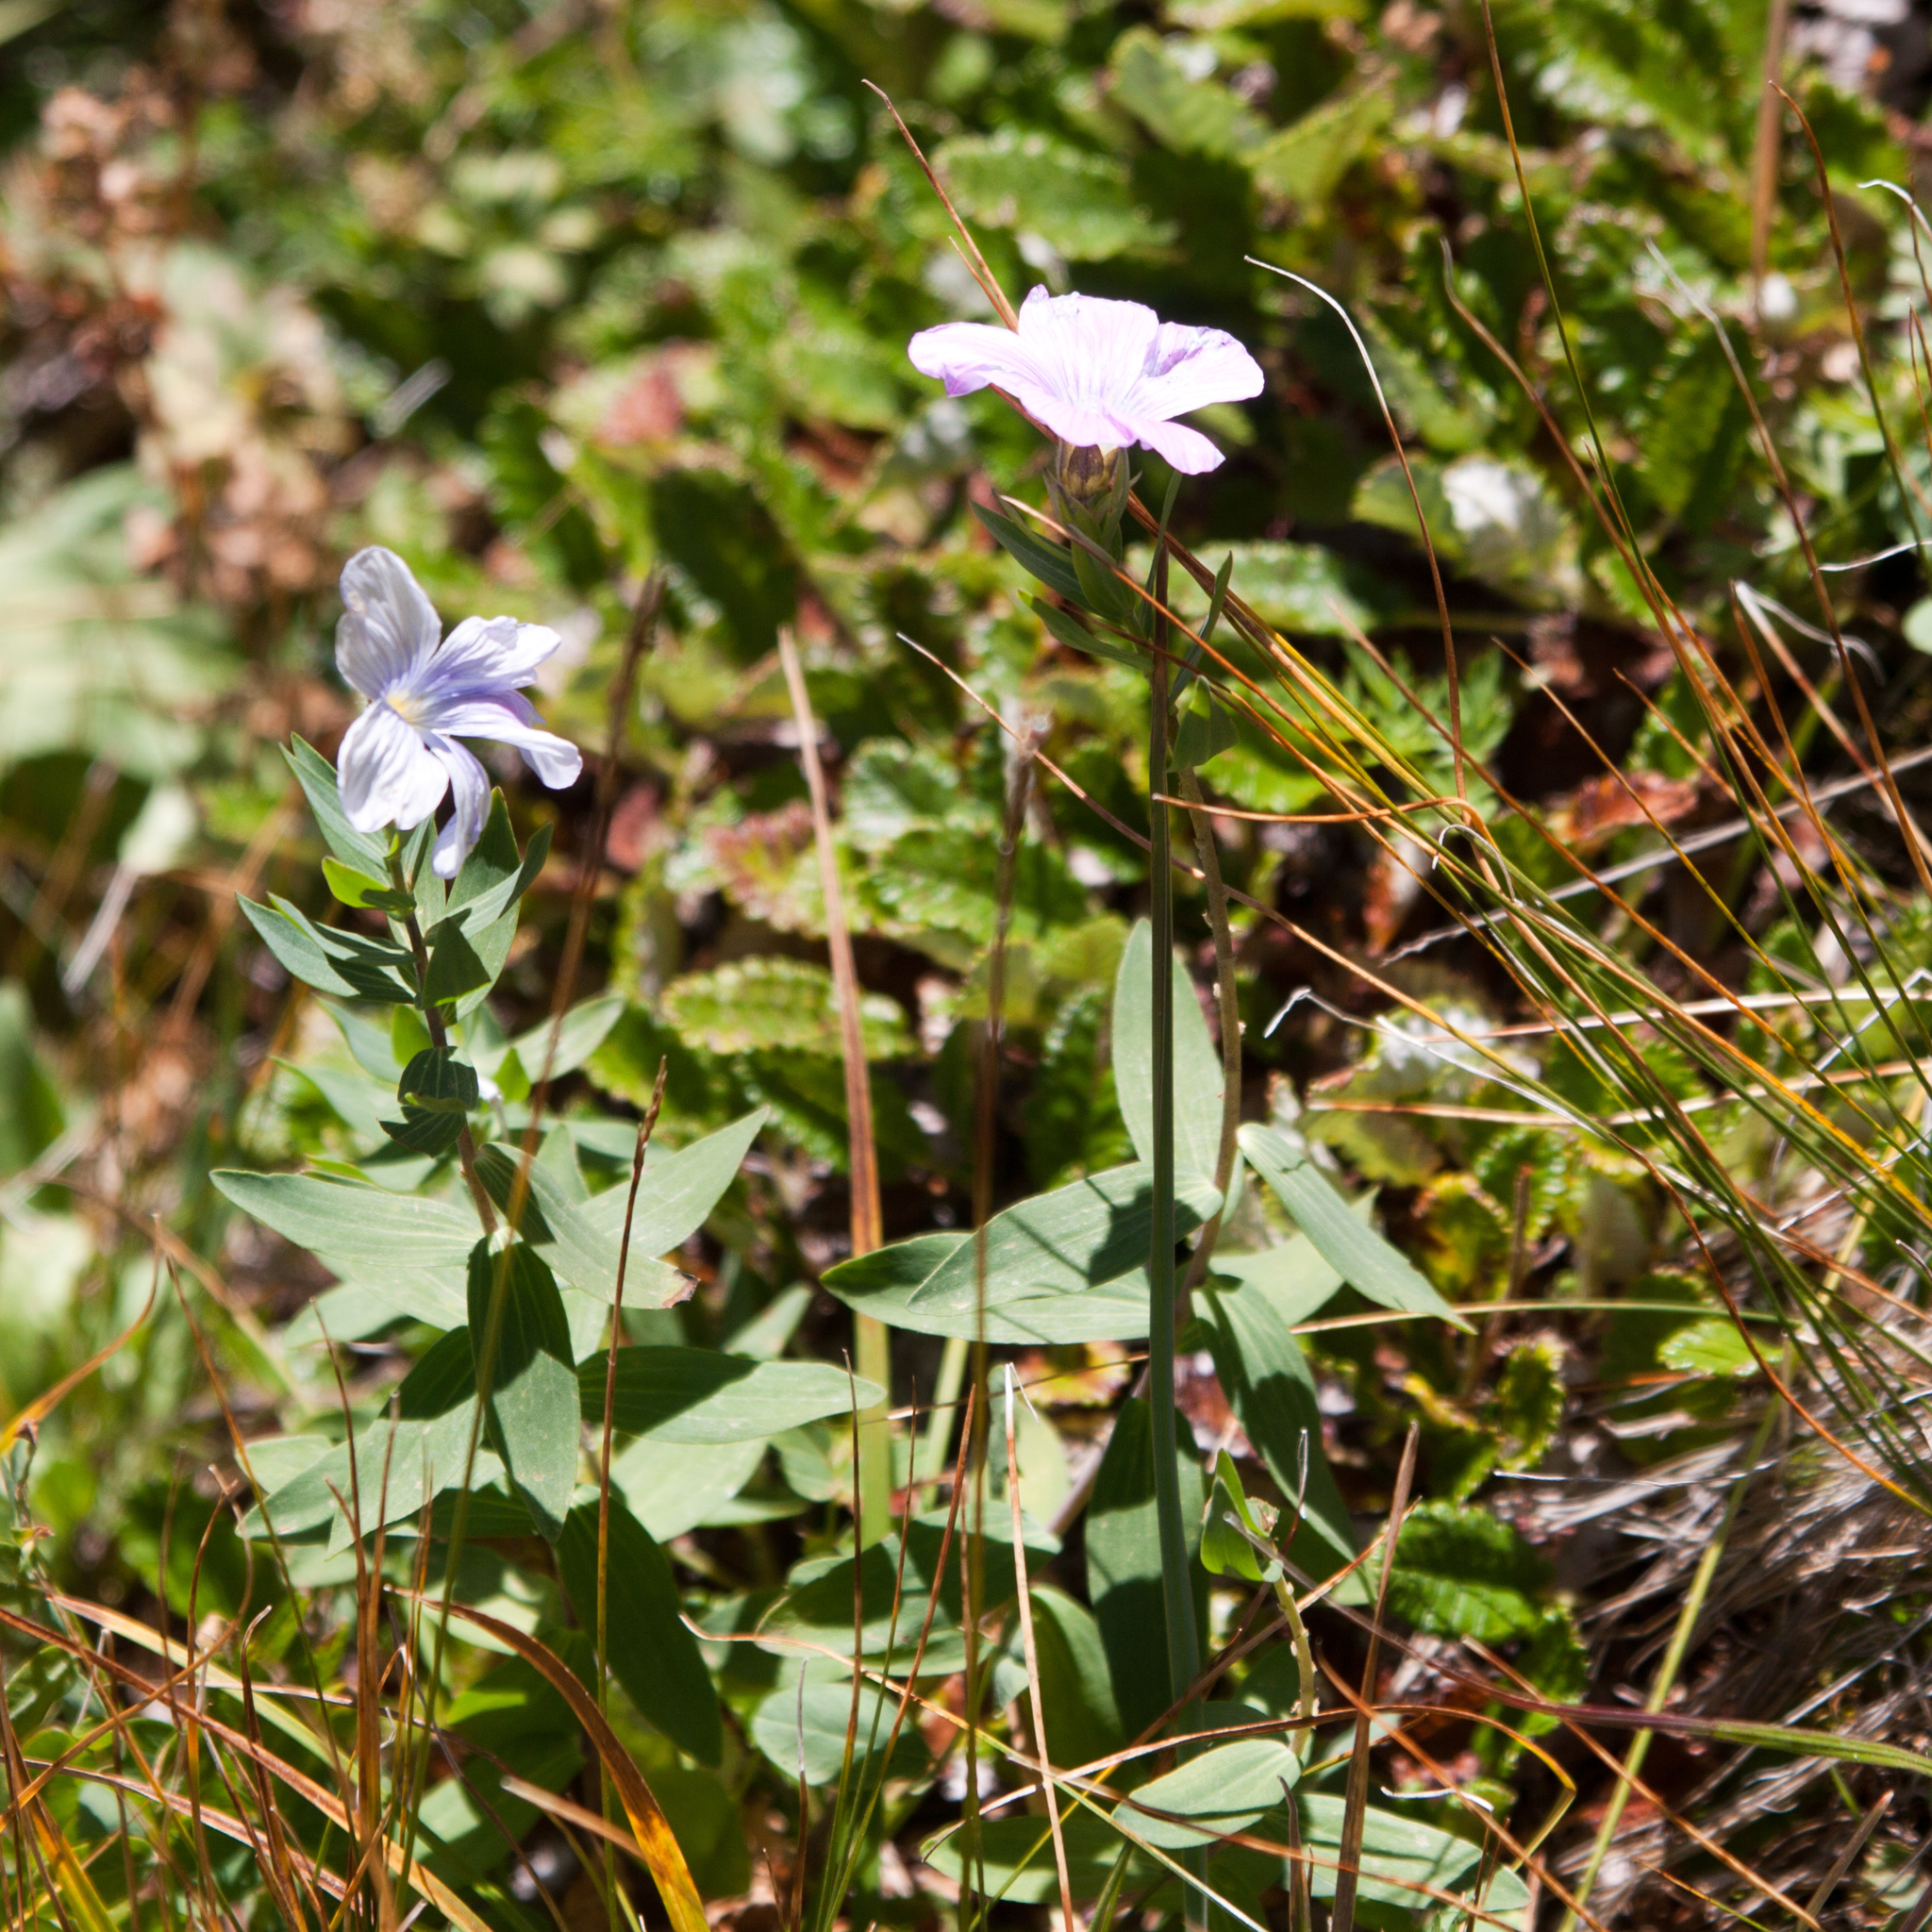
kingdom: Plantae
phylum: Tracheophyta
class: Magnoliopsida
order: Malpighiales
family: Linaceae
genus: Linum
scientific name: Linum hypericifolium
